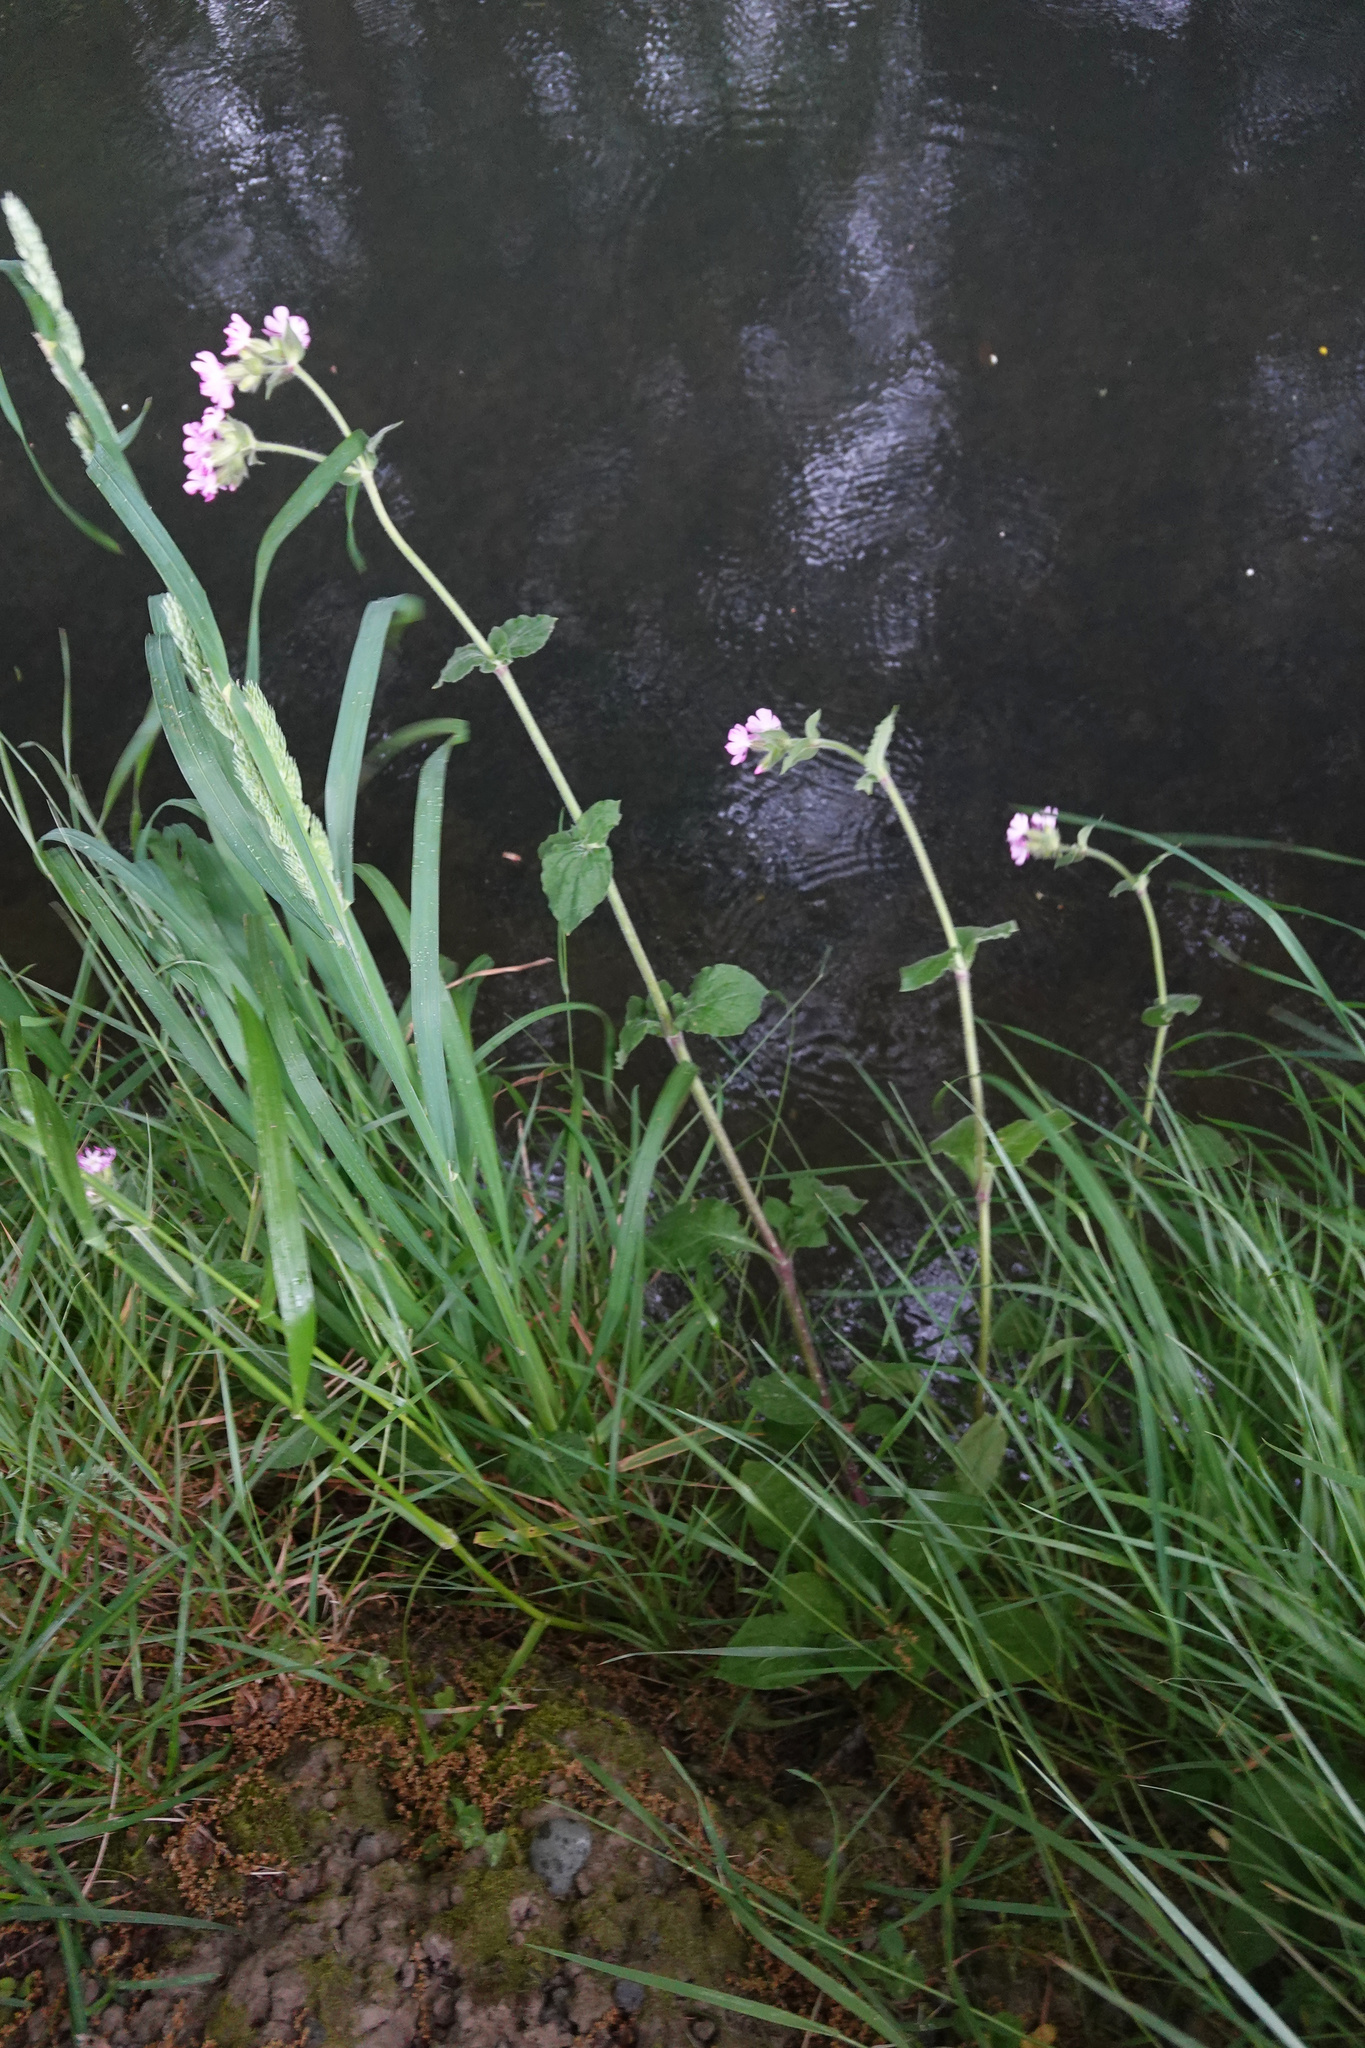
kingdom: Plantae
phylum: Tracheophyta
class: Magnoliopsida
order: Caryophyllales
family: Caryophyllaceae
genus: Silene
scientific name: Silene dioica
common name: Red campion
